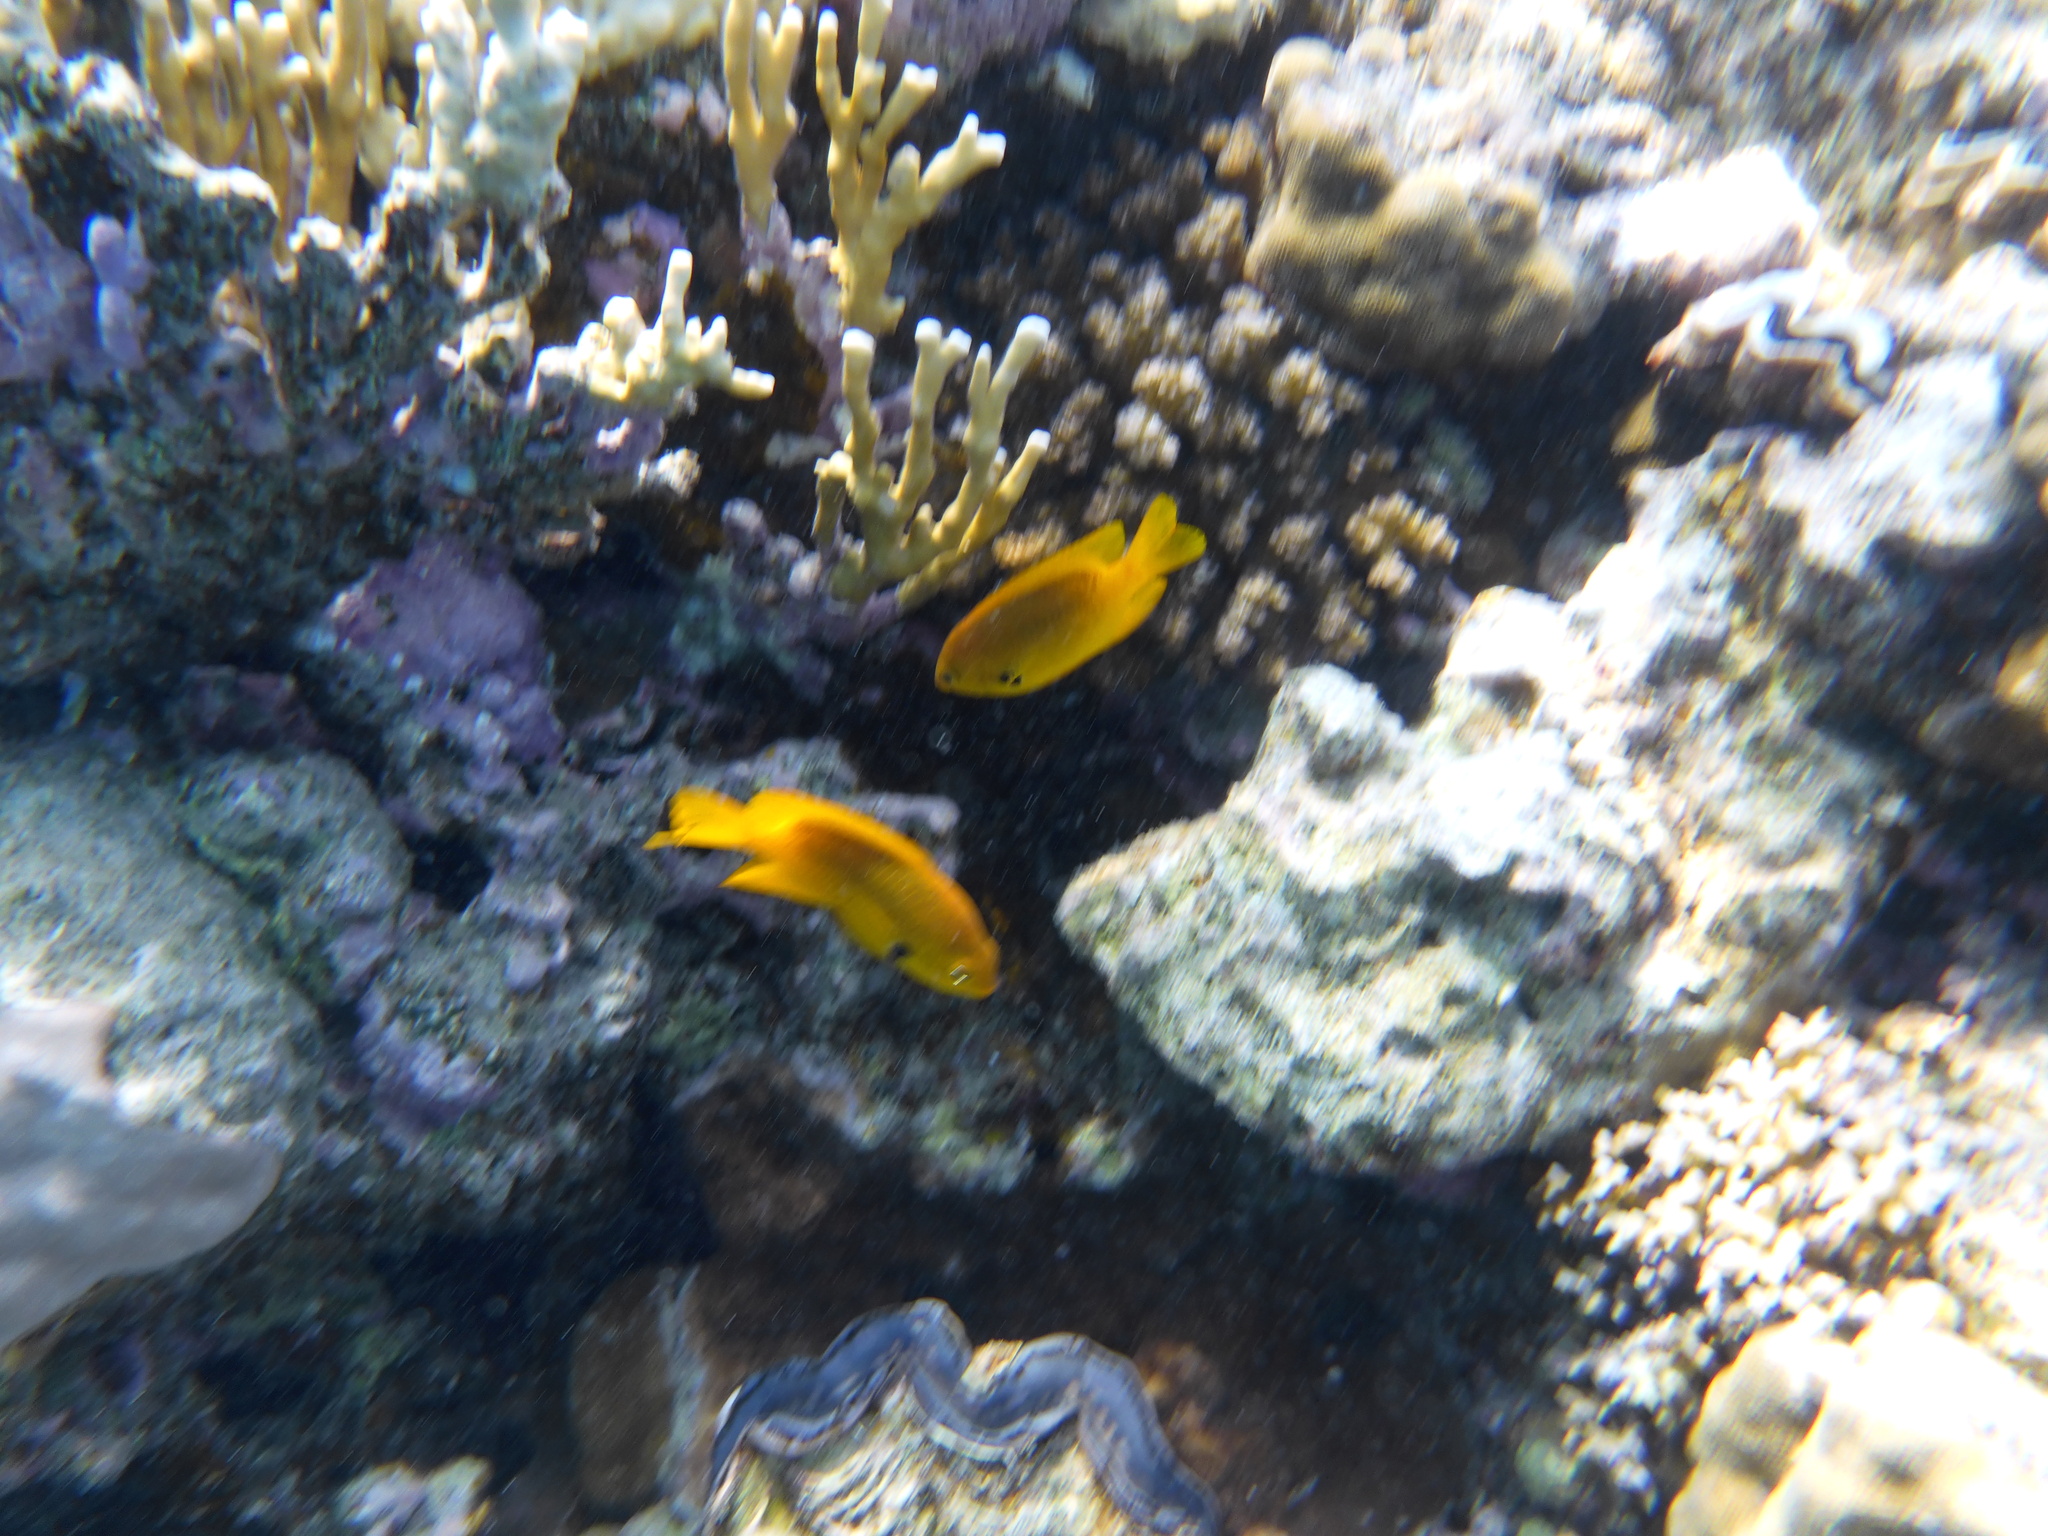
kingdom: Animalia
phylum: Chordata
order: Perciformes
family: Pomacentridae
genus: Pomacentrus
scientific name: Pomacentrus sulfureus
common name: Sulfur damsel
